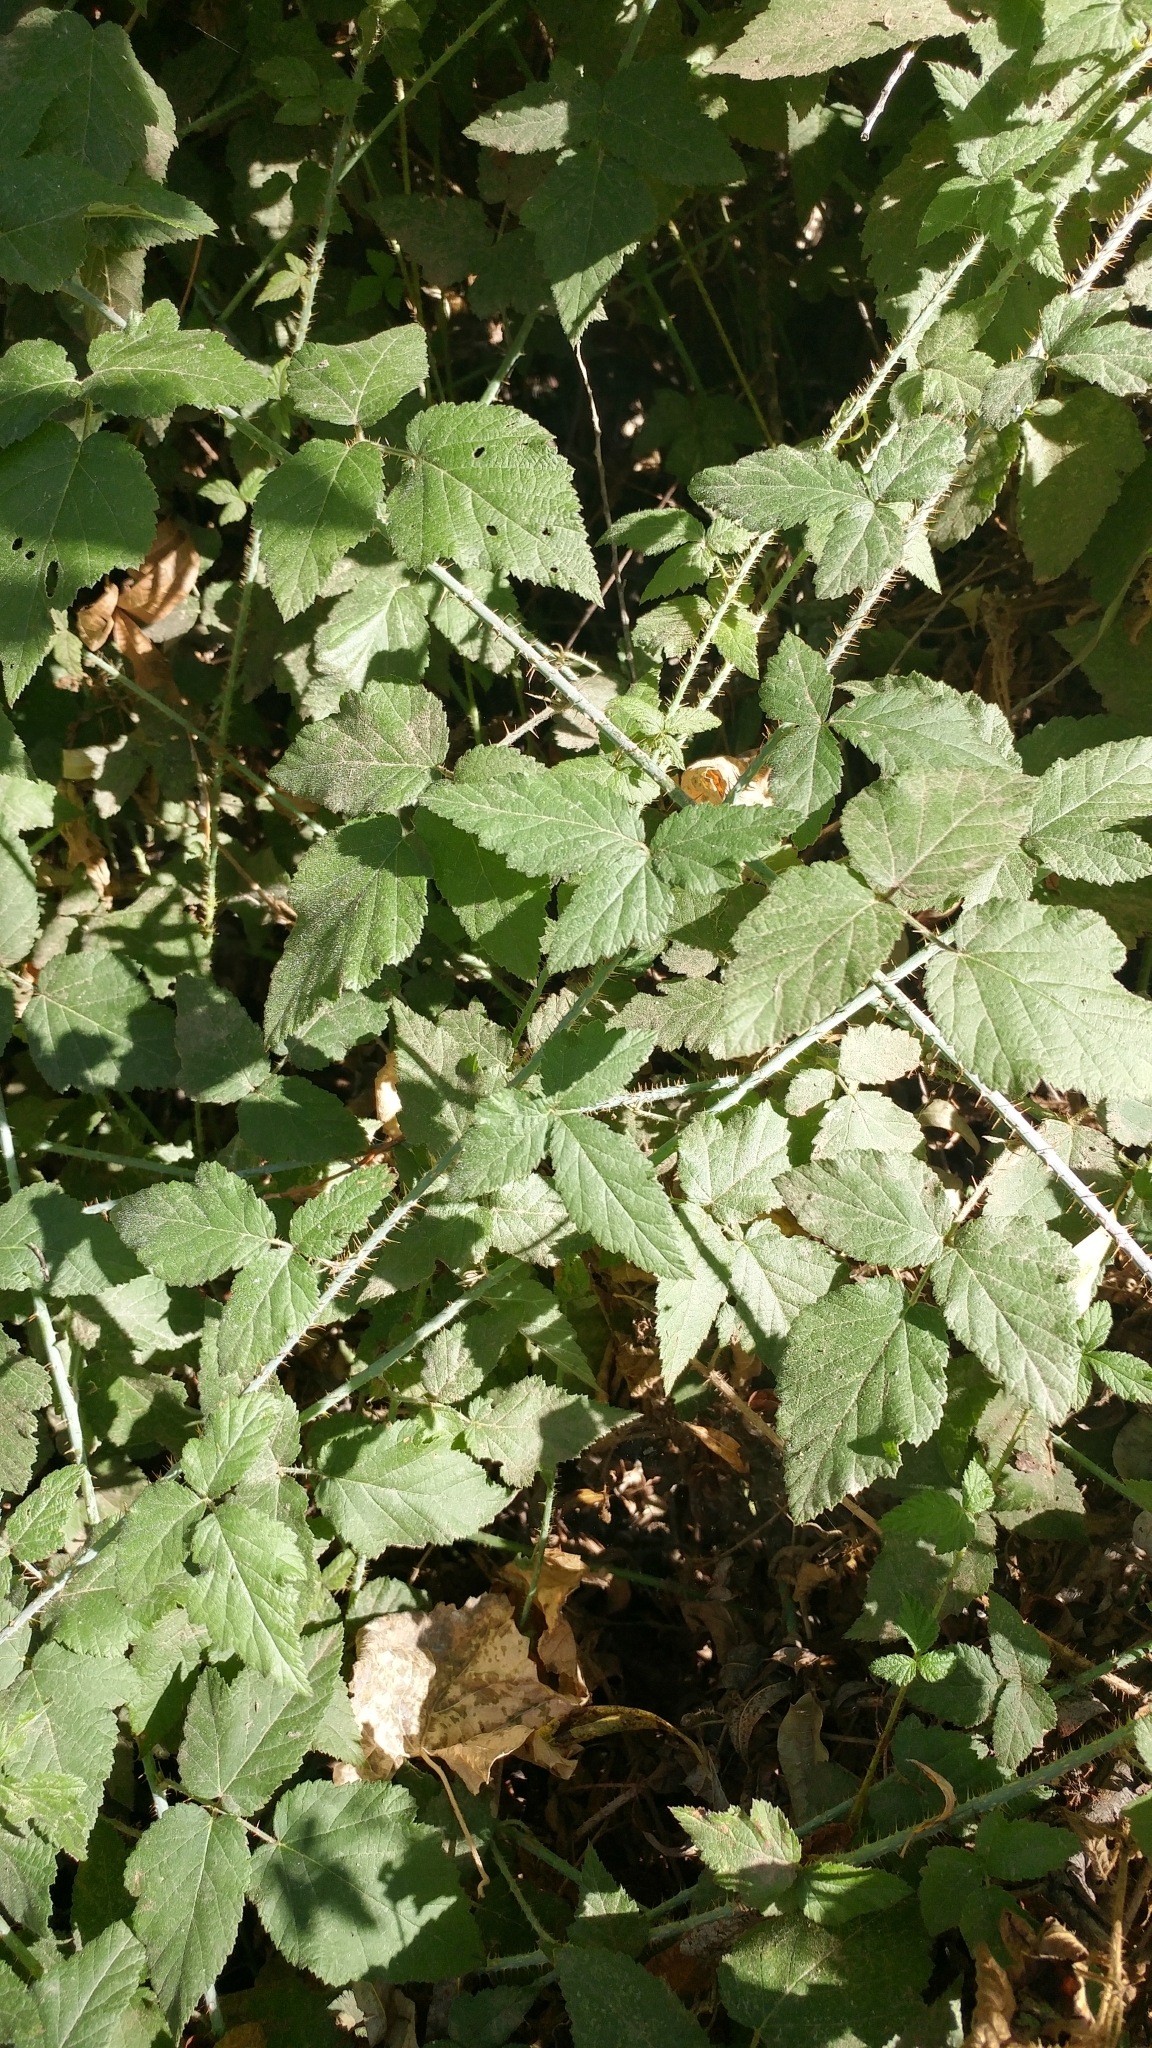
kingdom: Plantae
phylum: Tracheophyta
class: Magnoliopsida
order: Rosales
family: Rosaceae
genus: Rubus
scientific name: Rubus ursinus
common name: Pacific blackberry
